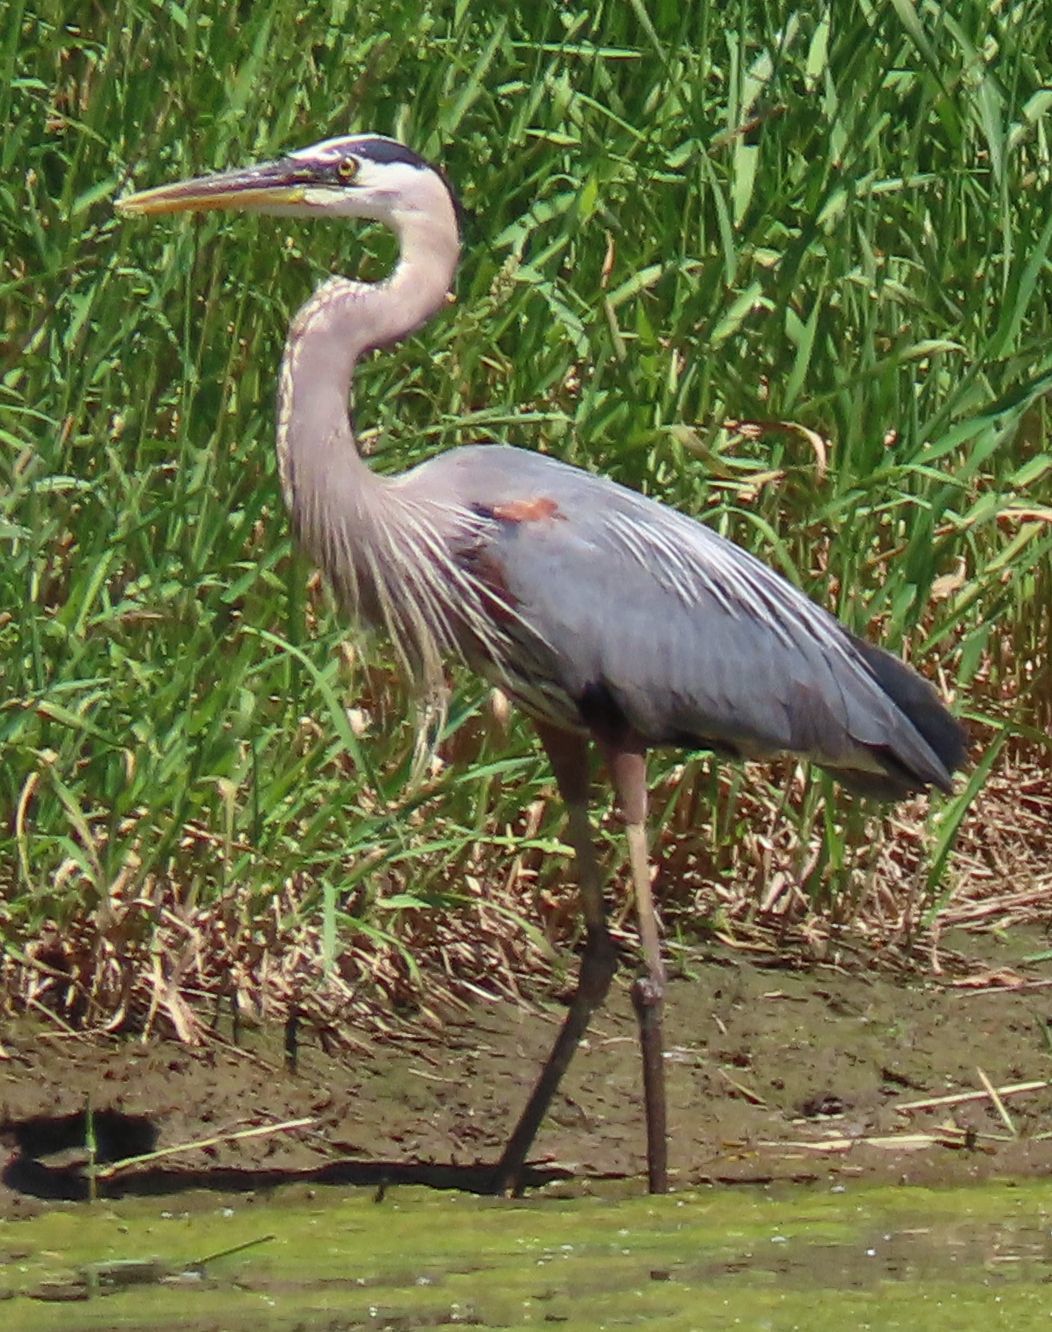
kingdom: Animalia
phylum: Chordata
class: Aves
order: Pelecaniformes
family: Ardeidae
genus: Ardea
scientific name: Ardea herodias
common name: Great blue heron
